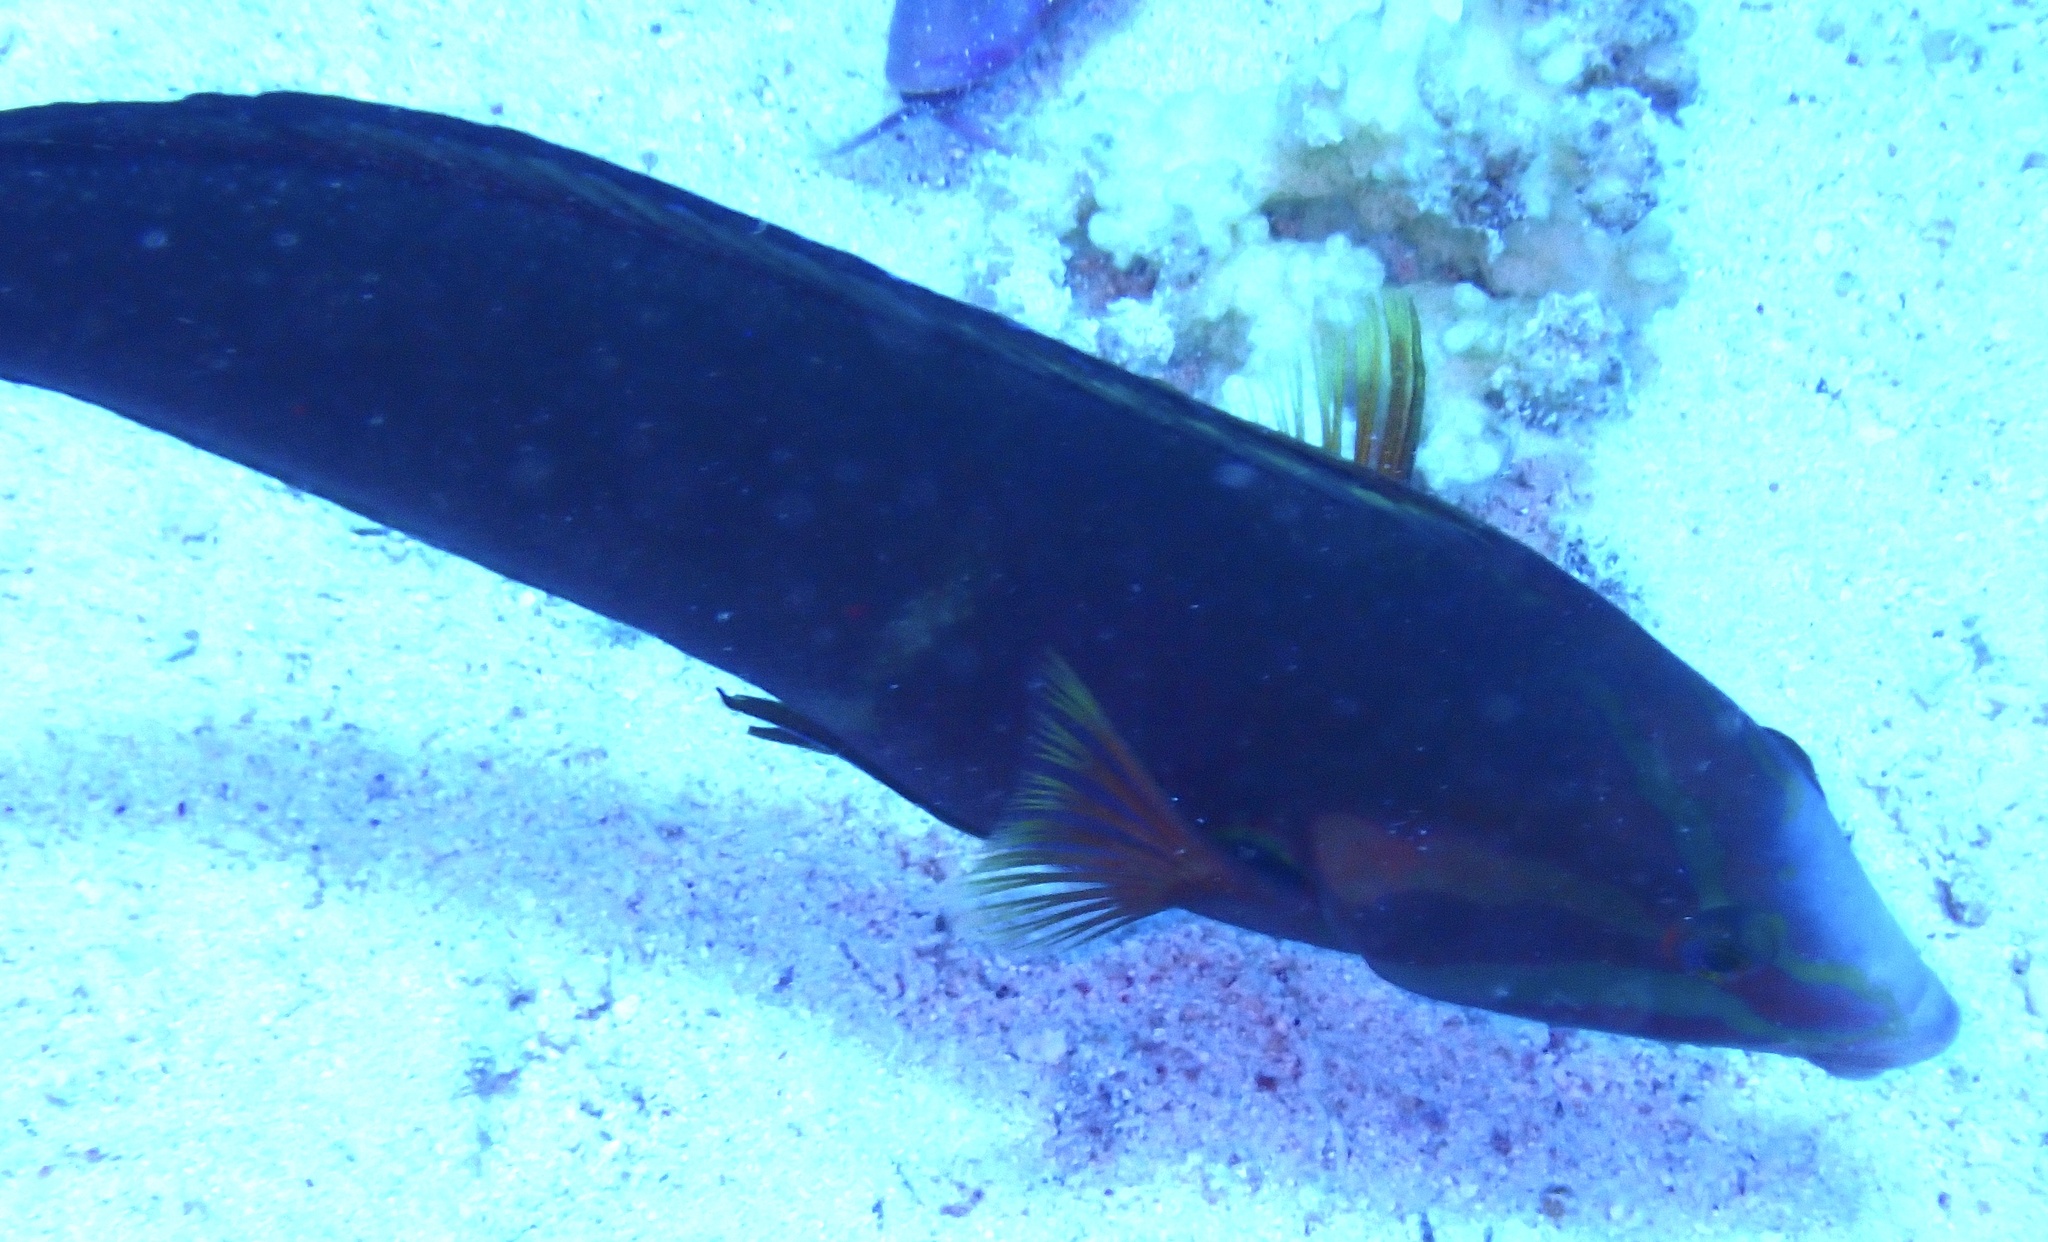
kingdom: Animalia
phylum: Chordata
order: Perciformes
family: Labridae
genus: Coris
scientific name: Coris cuvieri
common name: African coris
